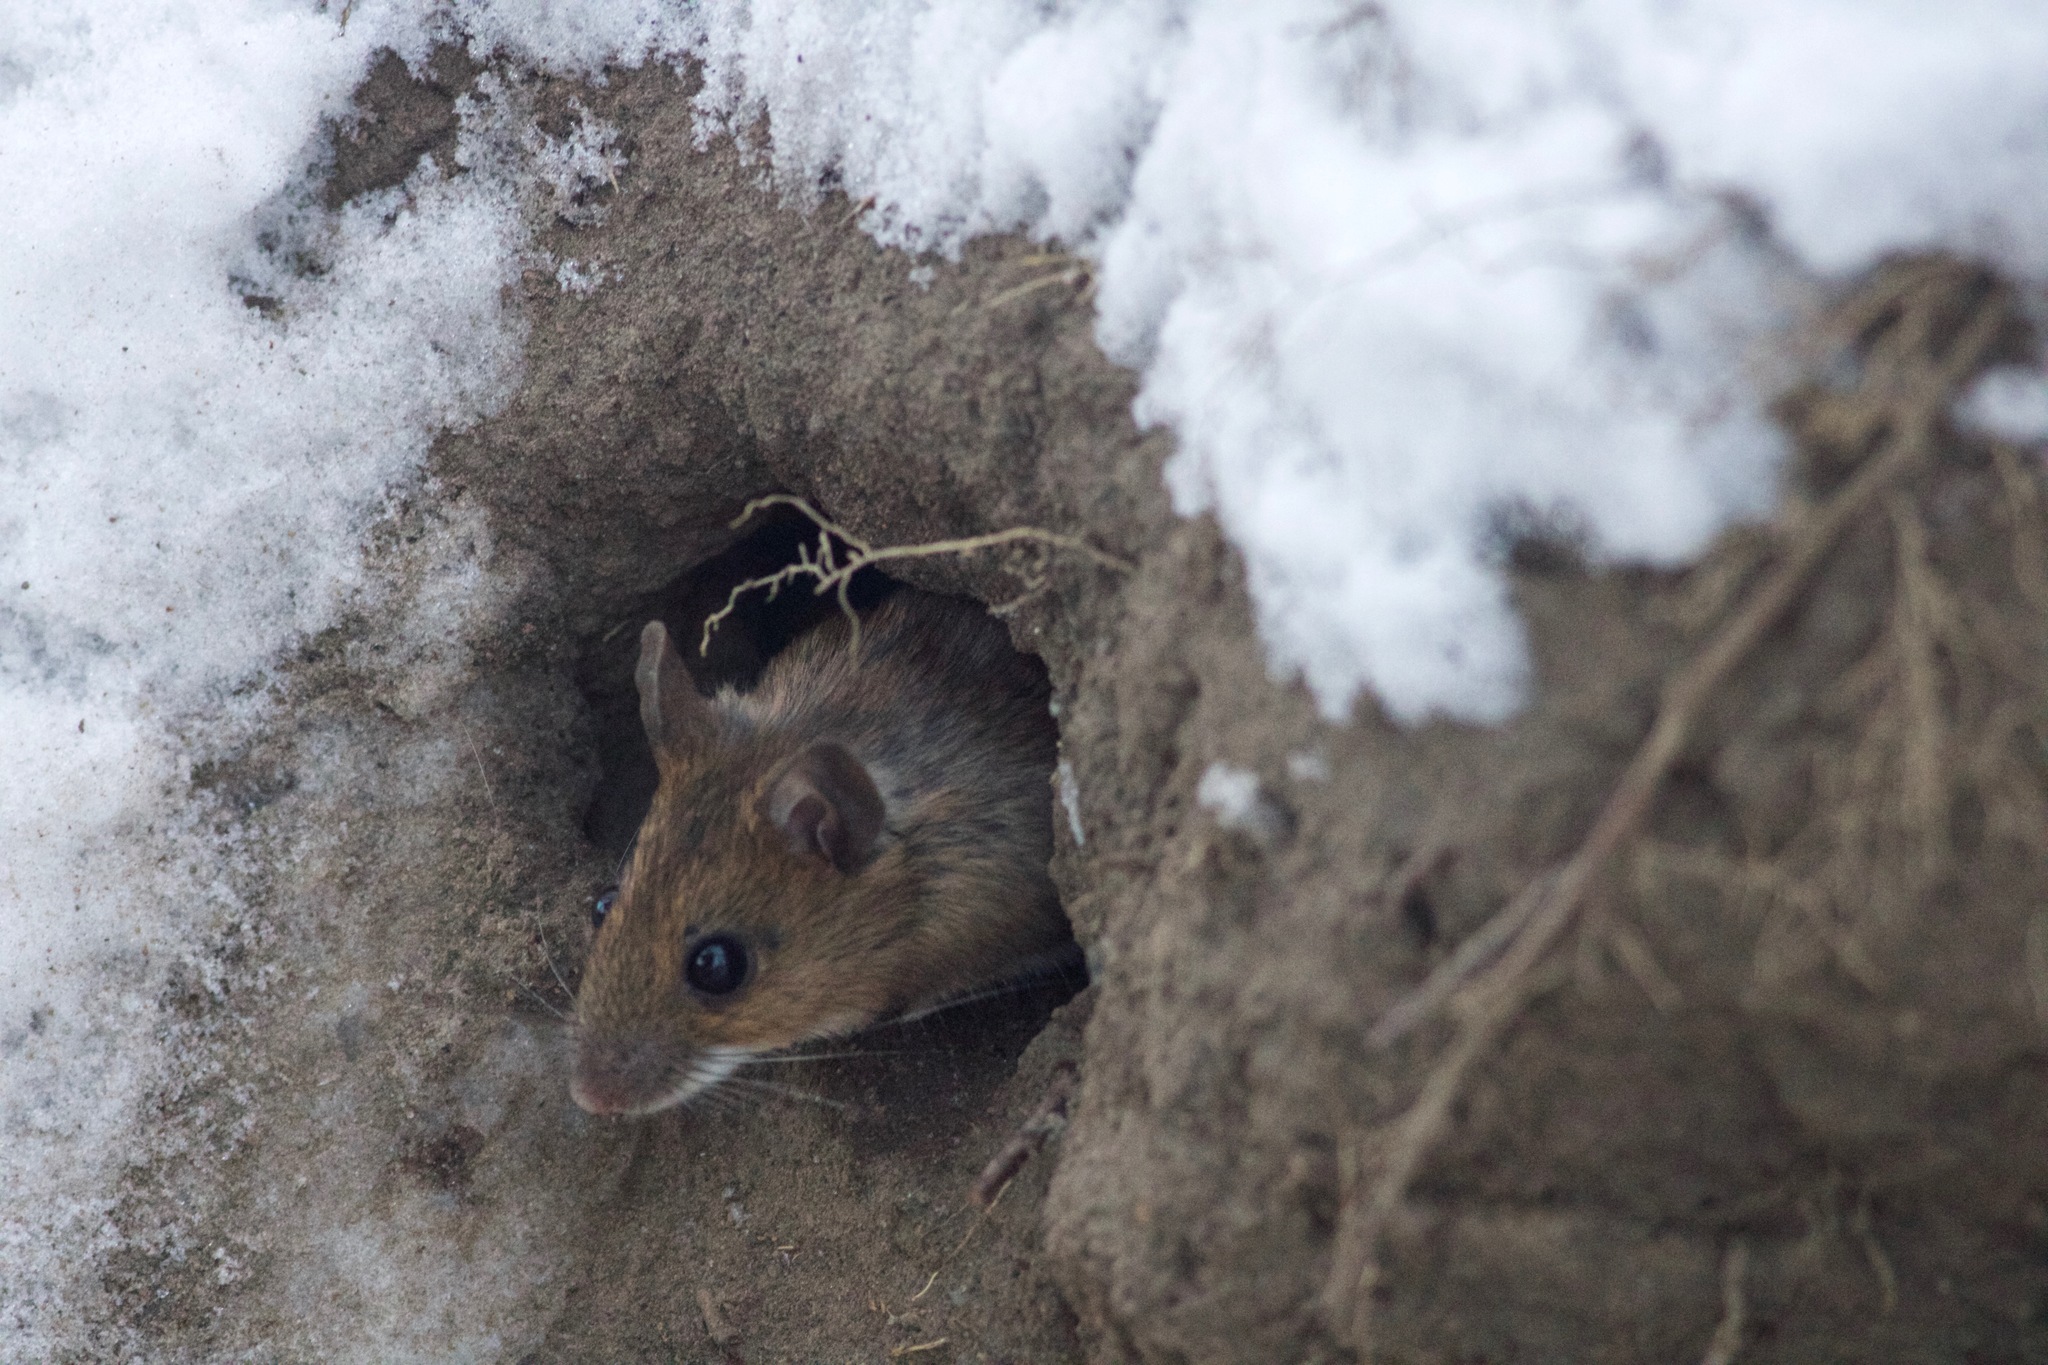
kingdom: Animalia
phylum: Chordata
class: Mammalia
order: Rodentia
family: Muridae
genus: Apodemus
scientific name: Apodemus uralensis
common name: Herb field mouse
